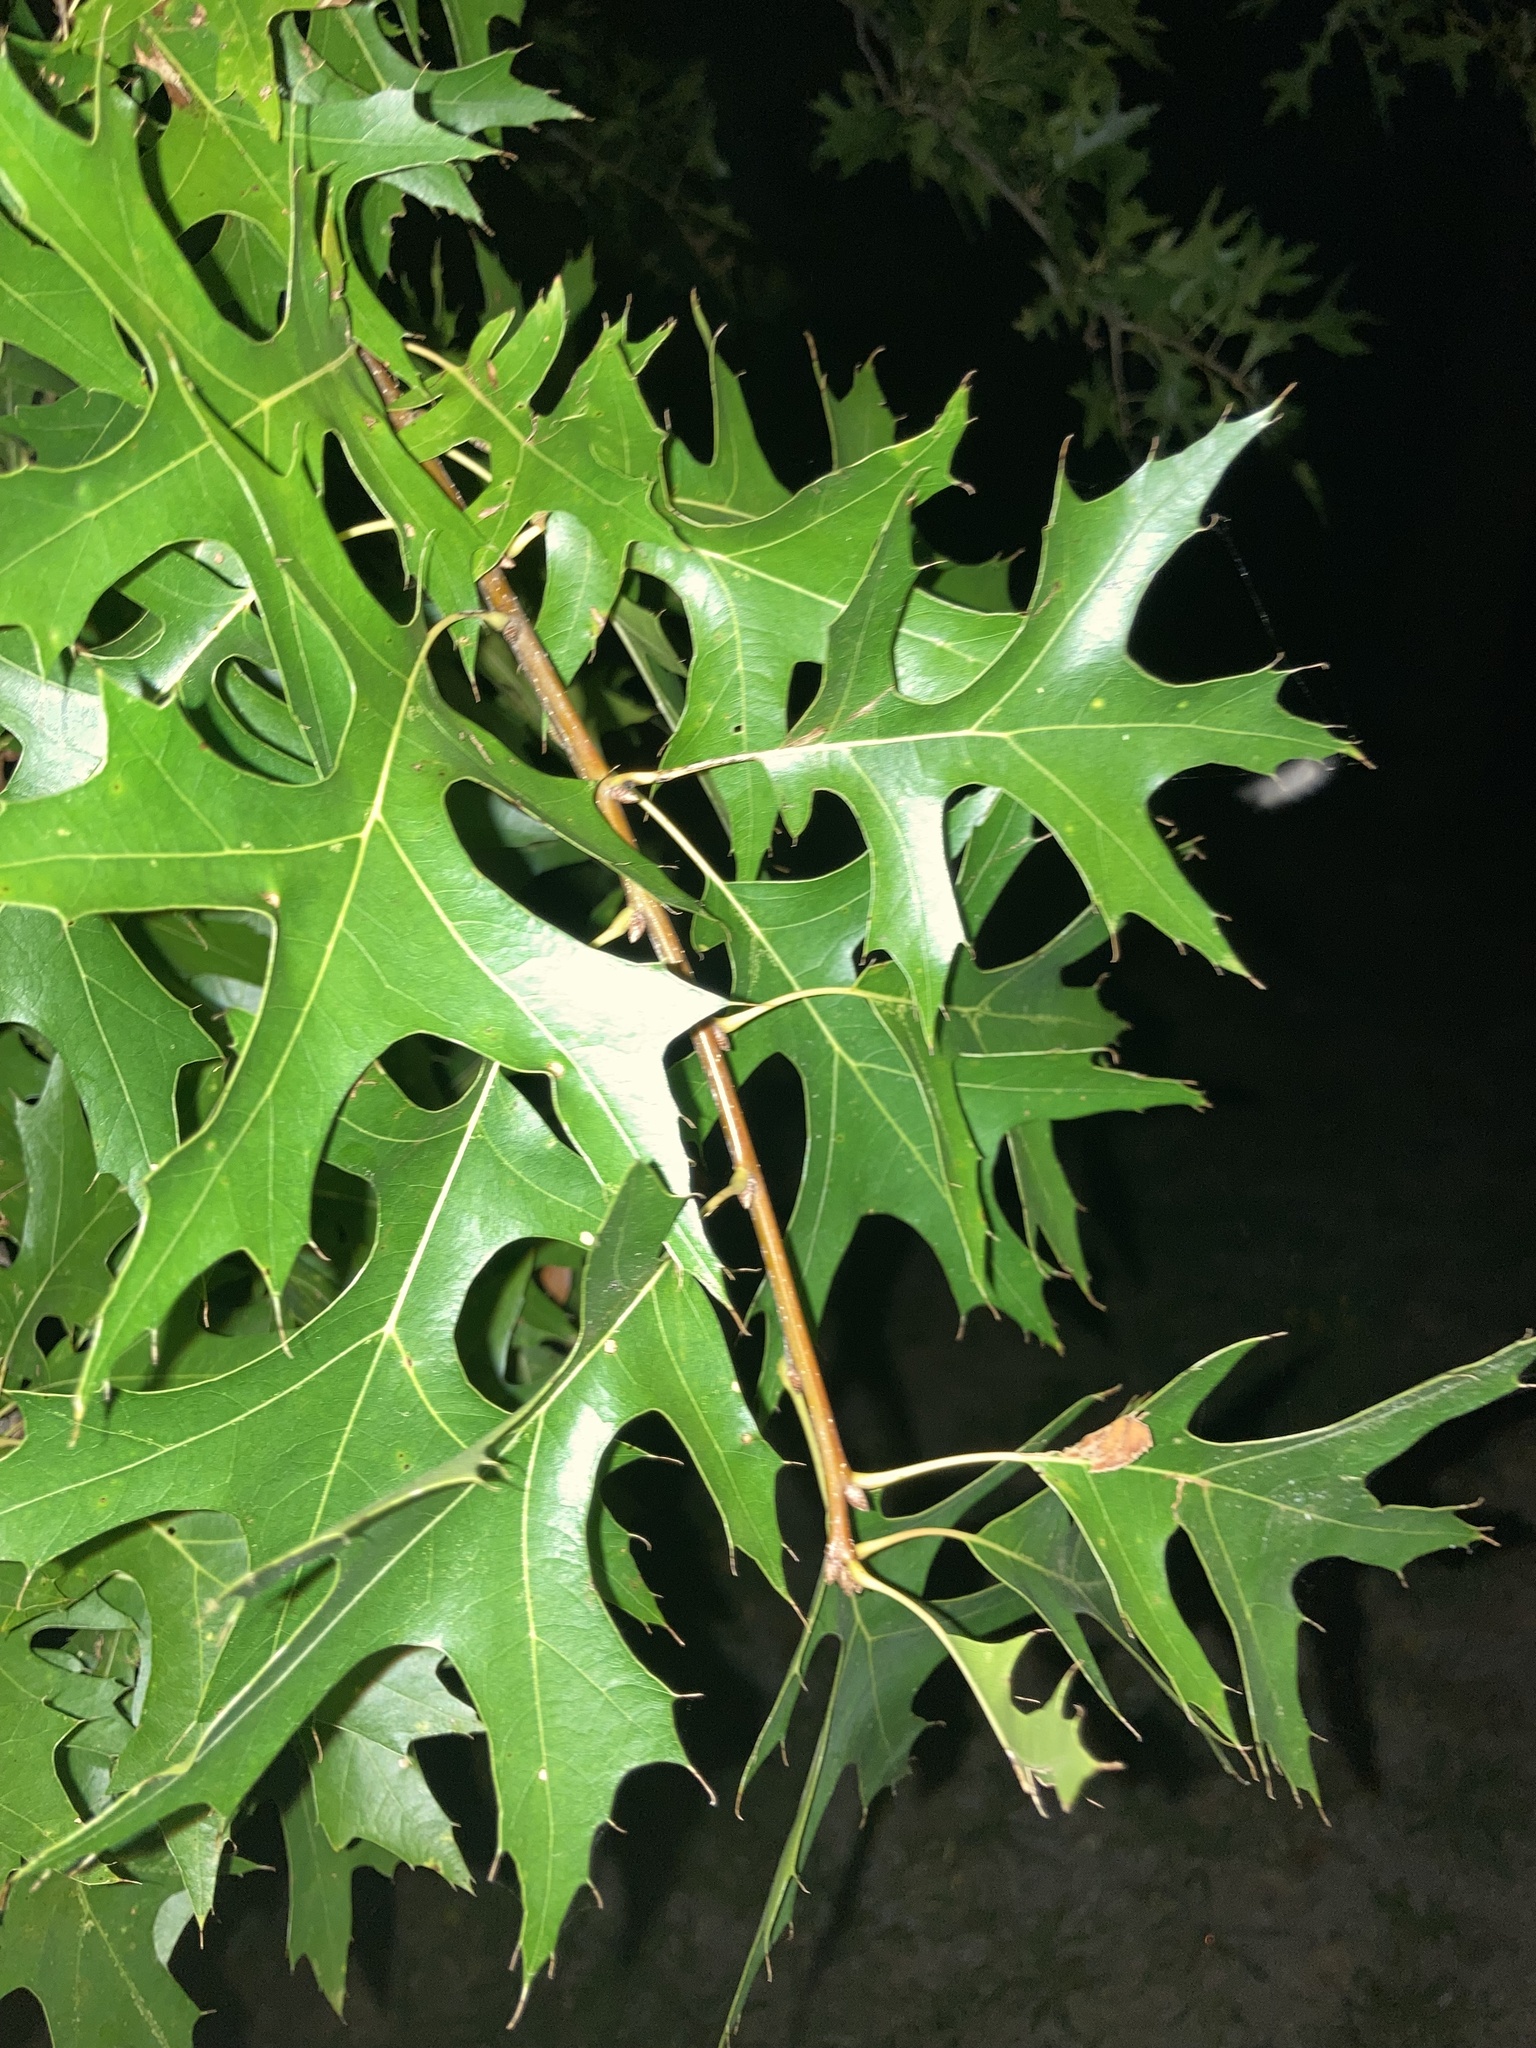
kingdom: Plantae
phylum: Tracheophyta
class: Magnoliopsida
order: Fagales
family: Fagaceae
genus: Quercus
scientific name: Quercus palustris
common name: Pin oak
